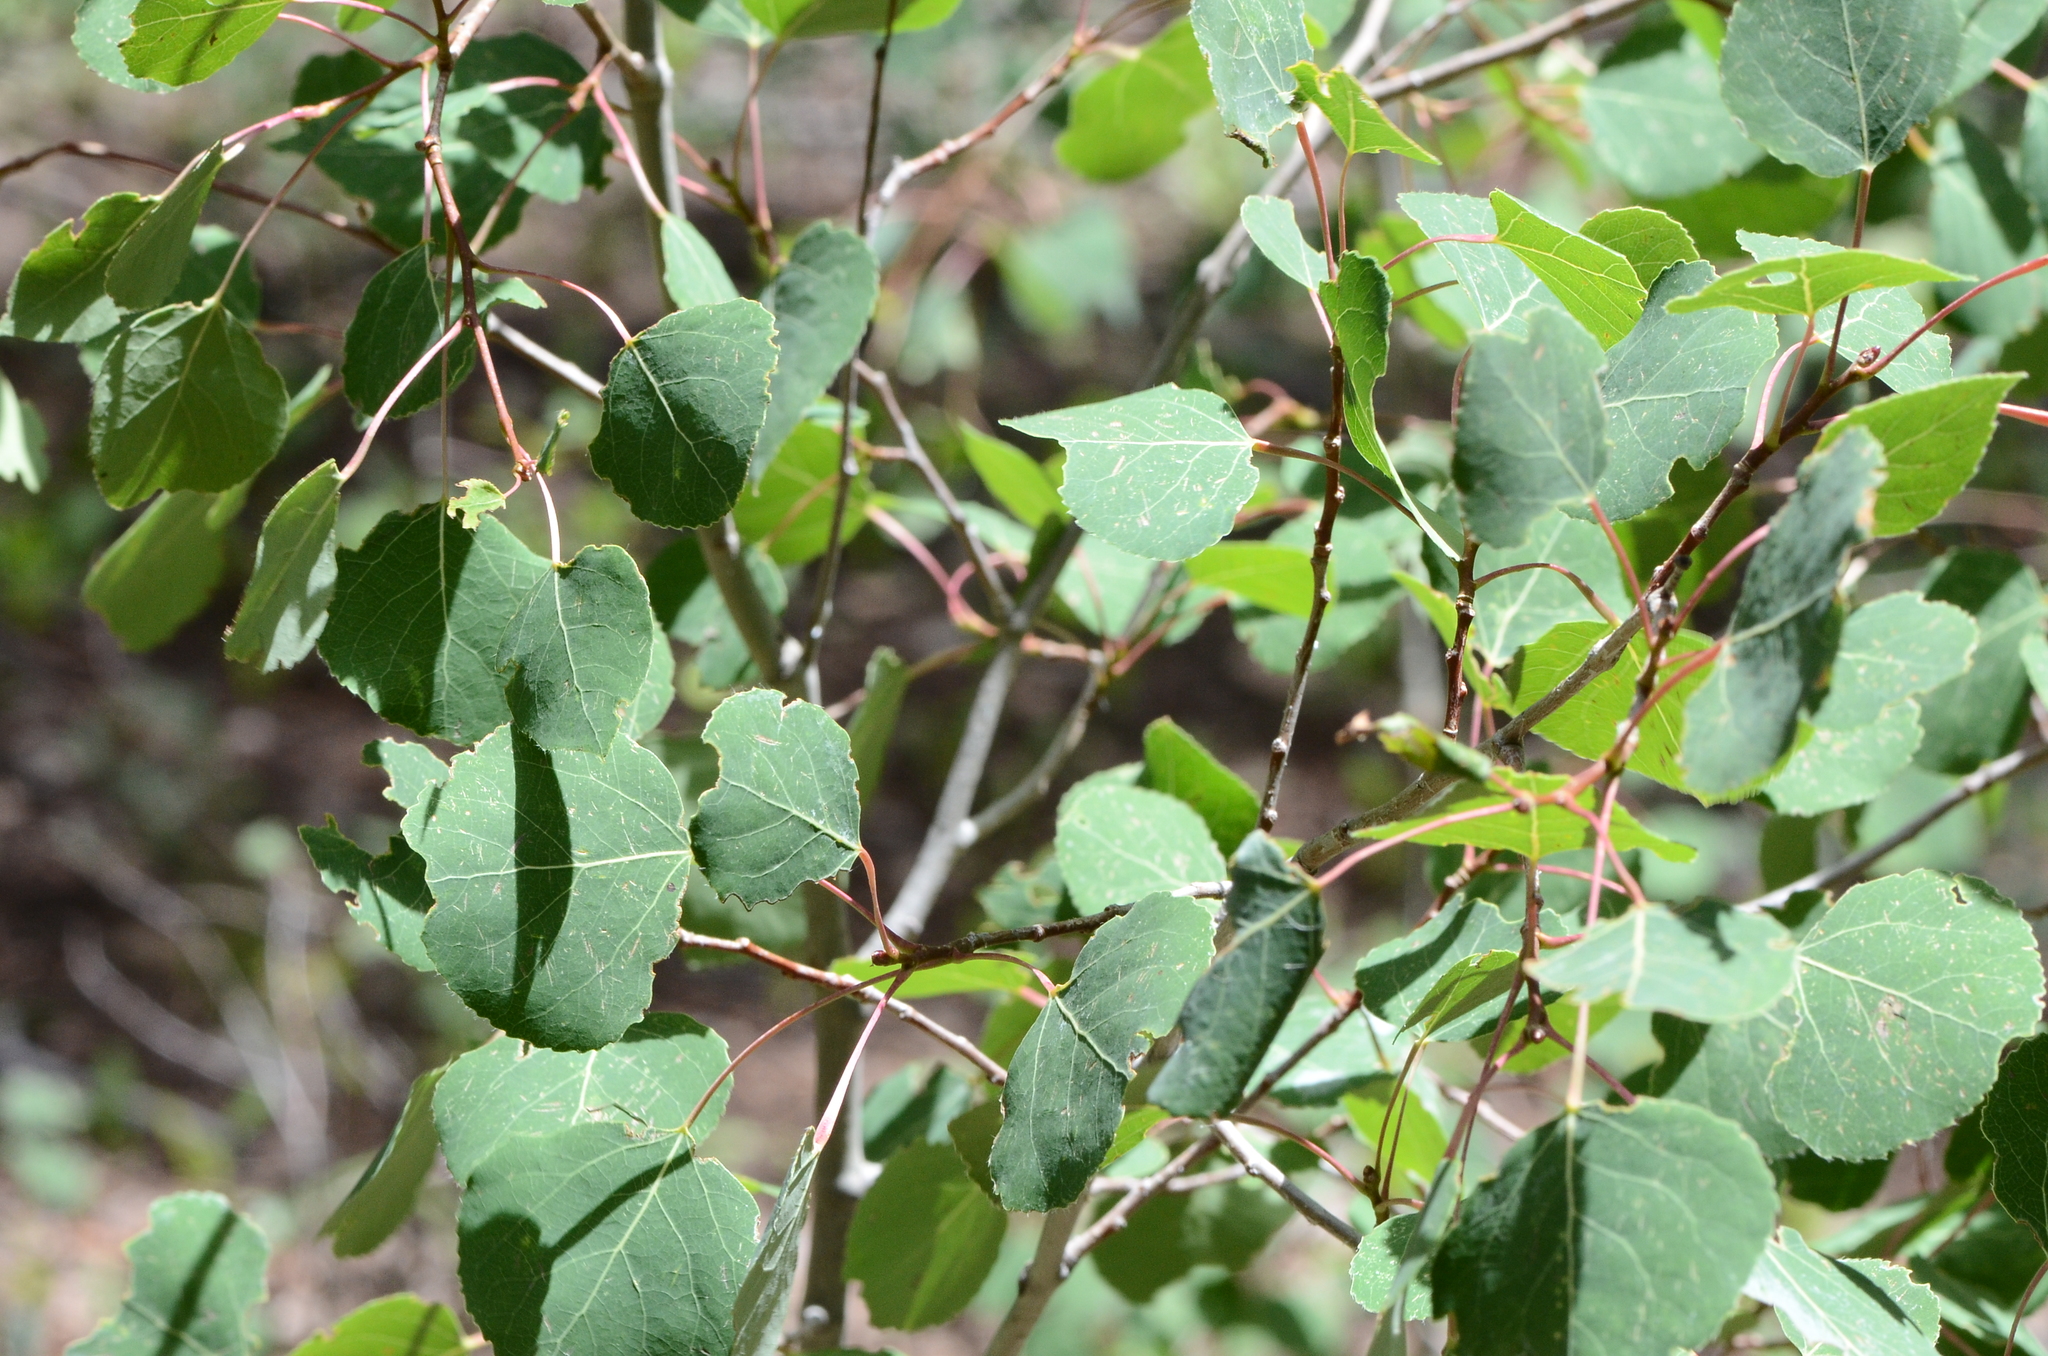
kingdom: Plantae
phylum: Tracheophyta
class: Magnoliopsida
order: Malpighiales
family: Salicaceae
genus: Populus
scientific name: Populus tremuloides
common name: Quaking aspen
